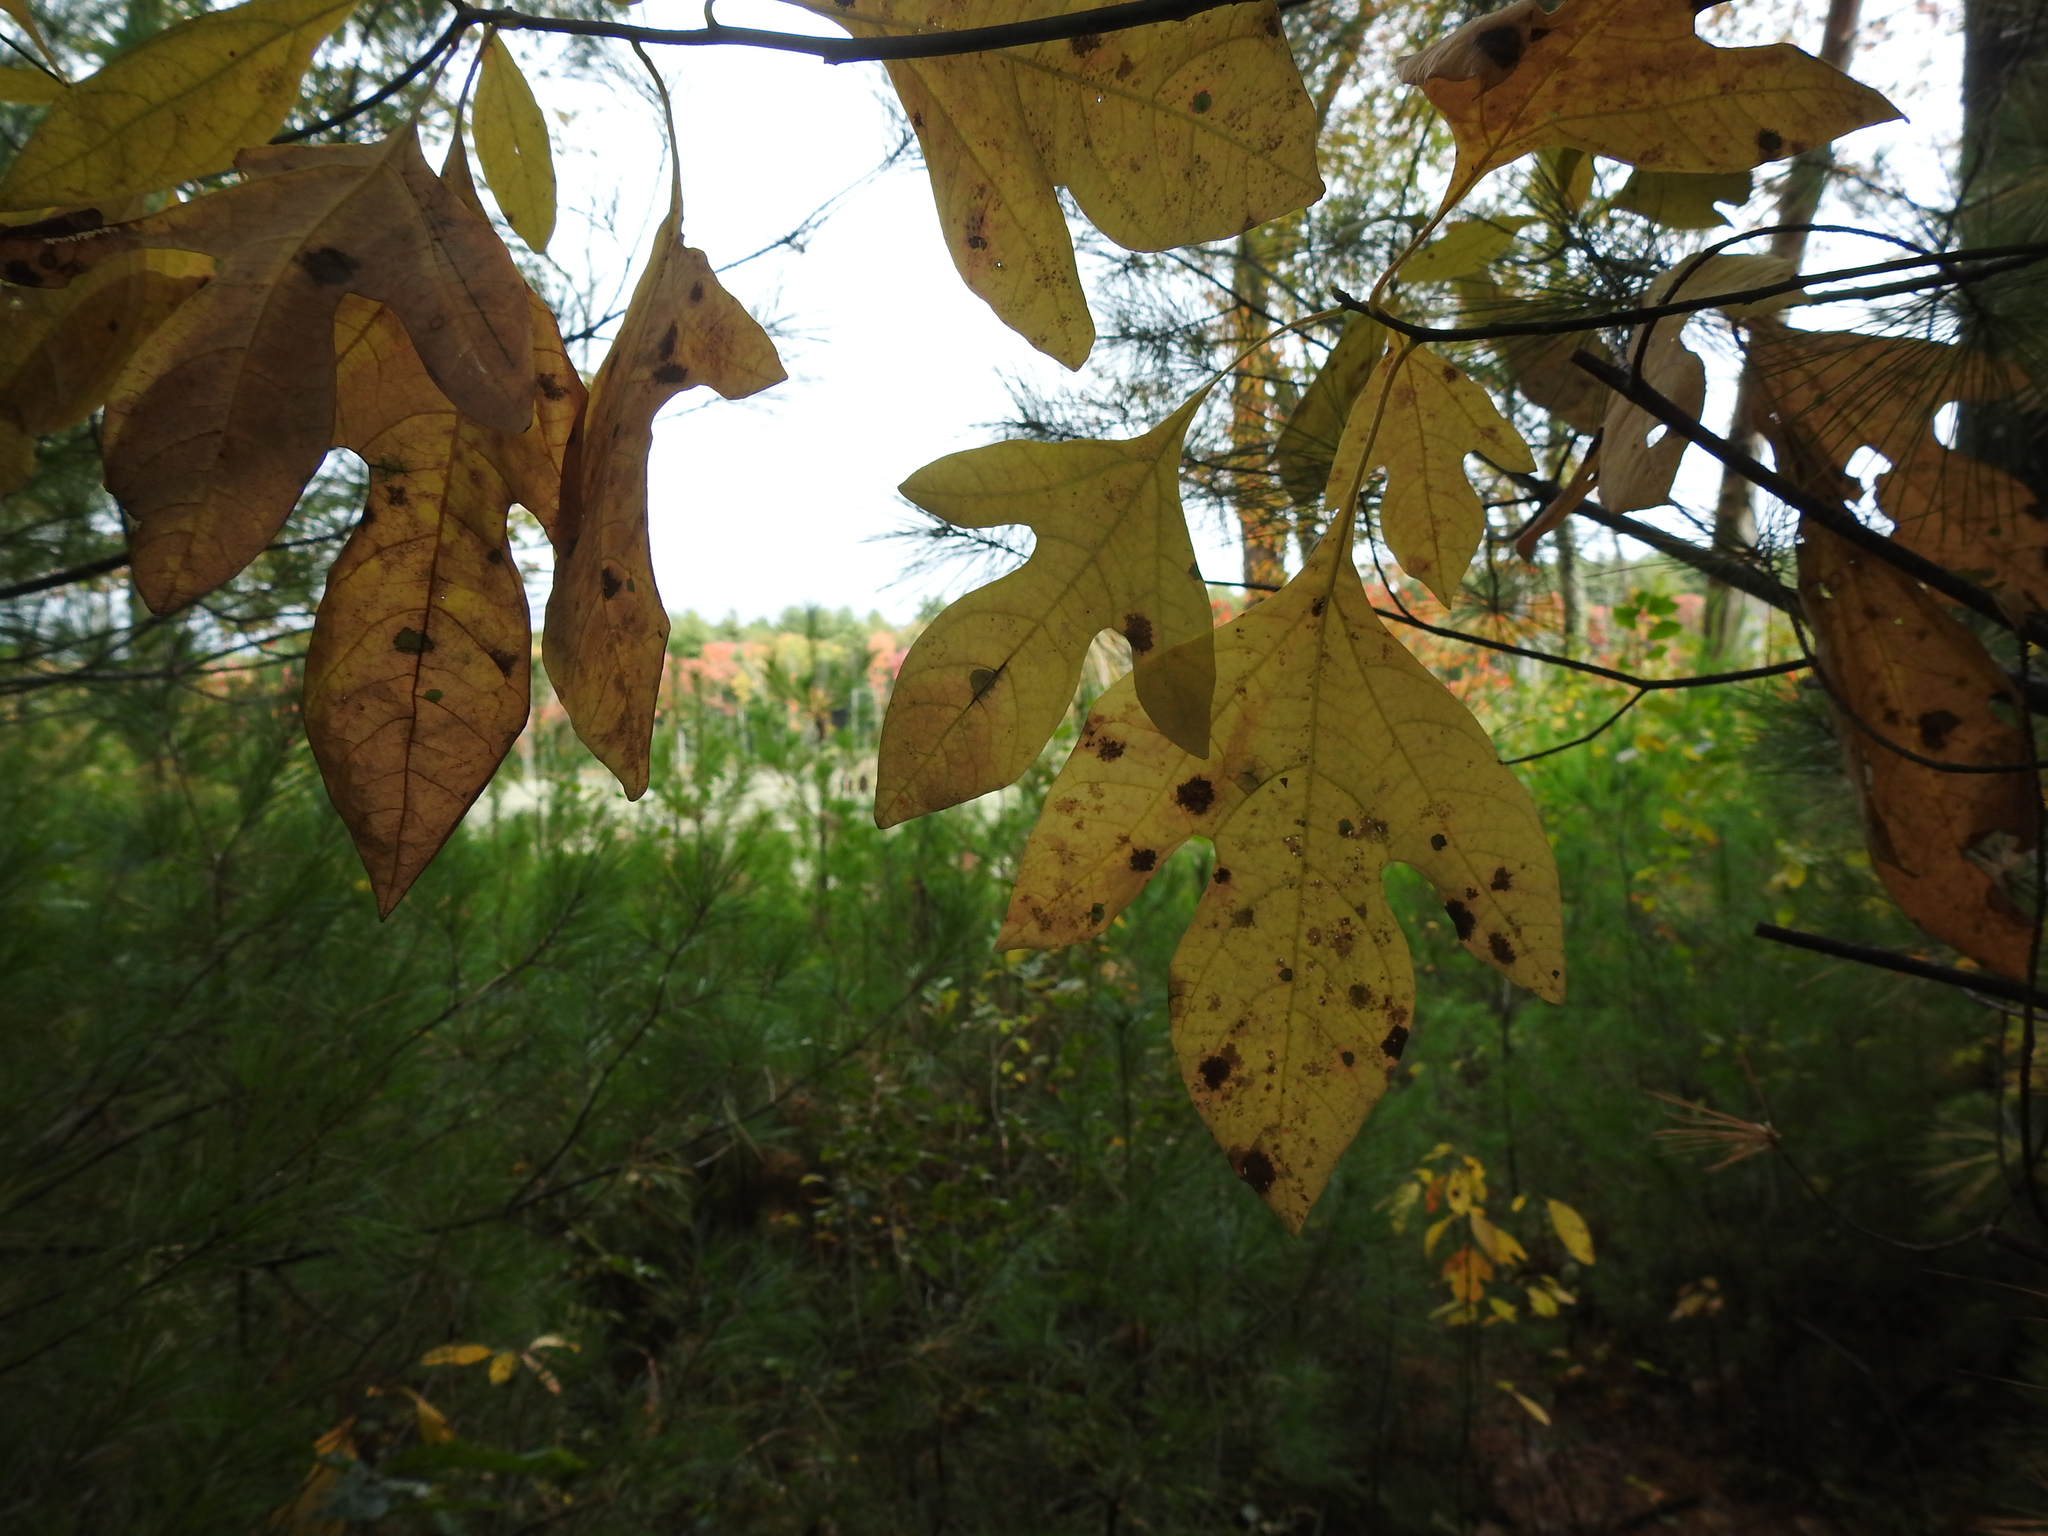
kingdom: Plantae
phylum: Tracheophyta
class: Magnoliopsida
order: Laurales
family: Lauraceae
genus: Sassafras
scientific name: Sassafras albidum
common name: Sassafras
